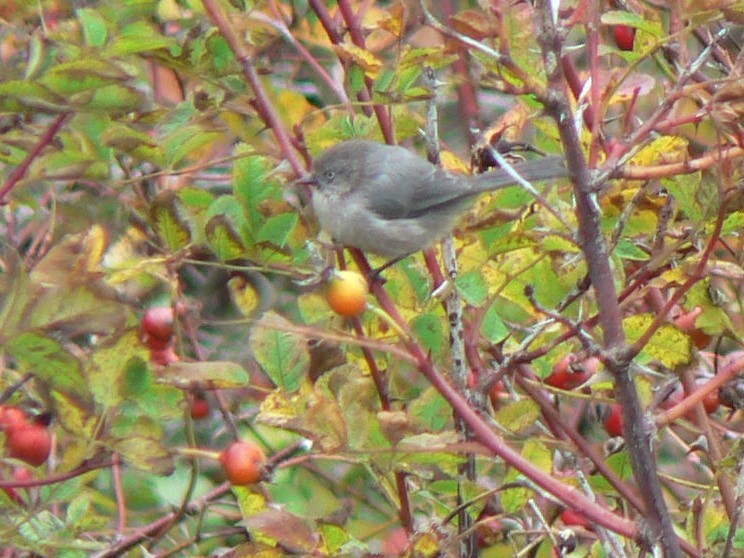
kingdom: Animalia
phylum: Chordata
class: Aves
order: Passeriformes
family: Aegithalidae
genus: Psaltriparus
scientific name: Psaltriparus minimus
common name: American bushtit
